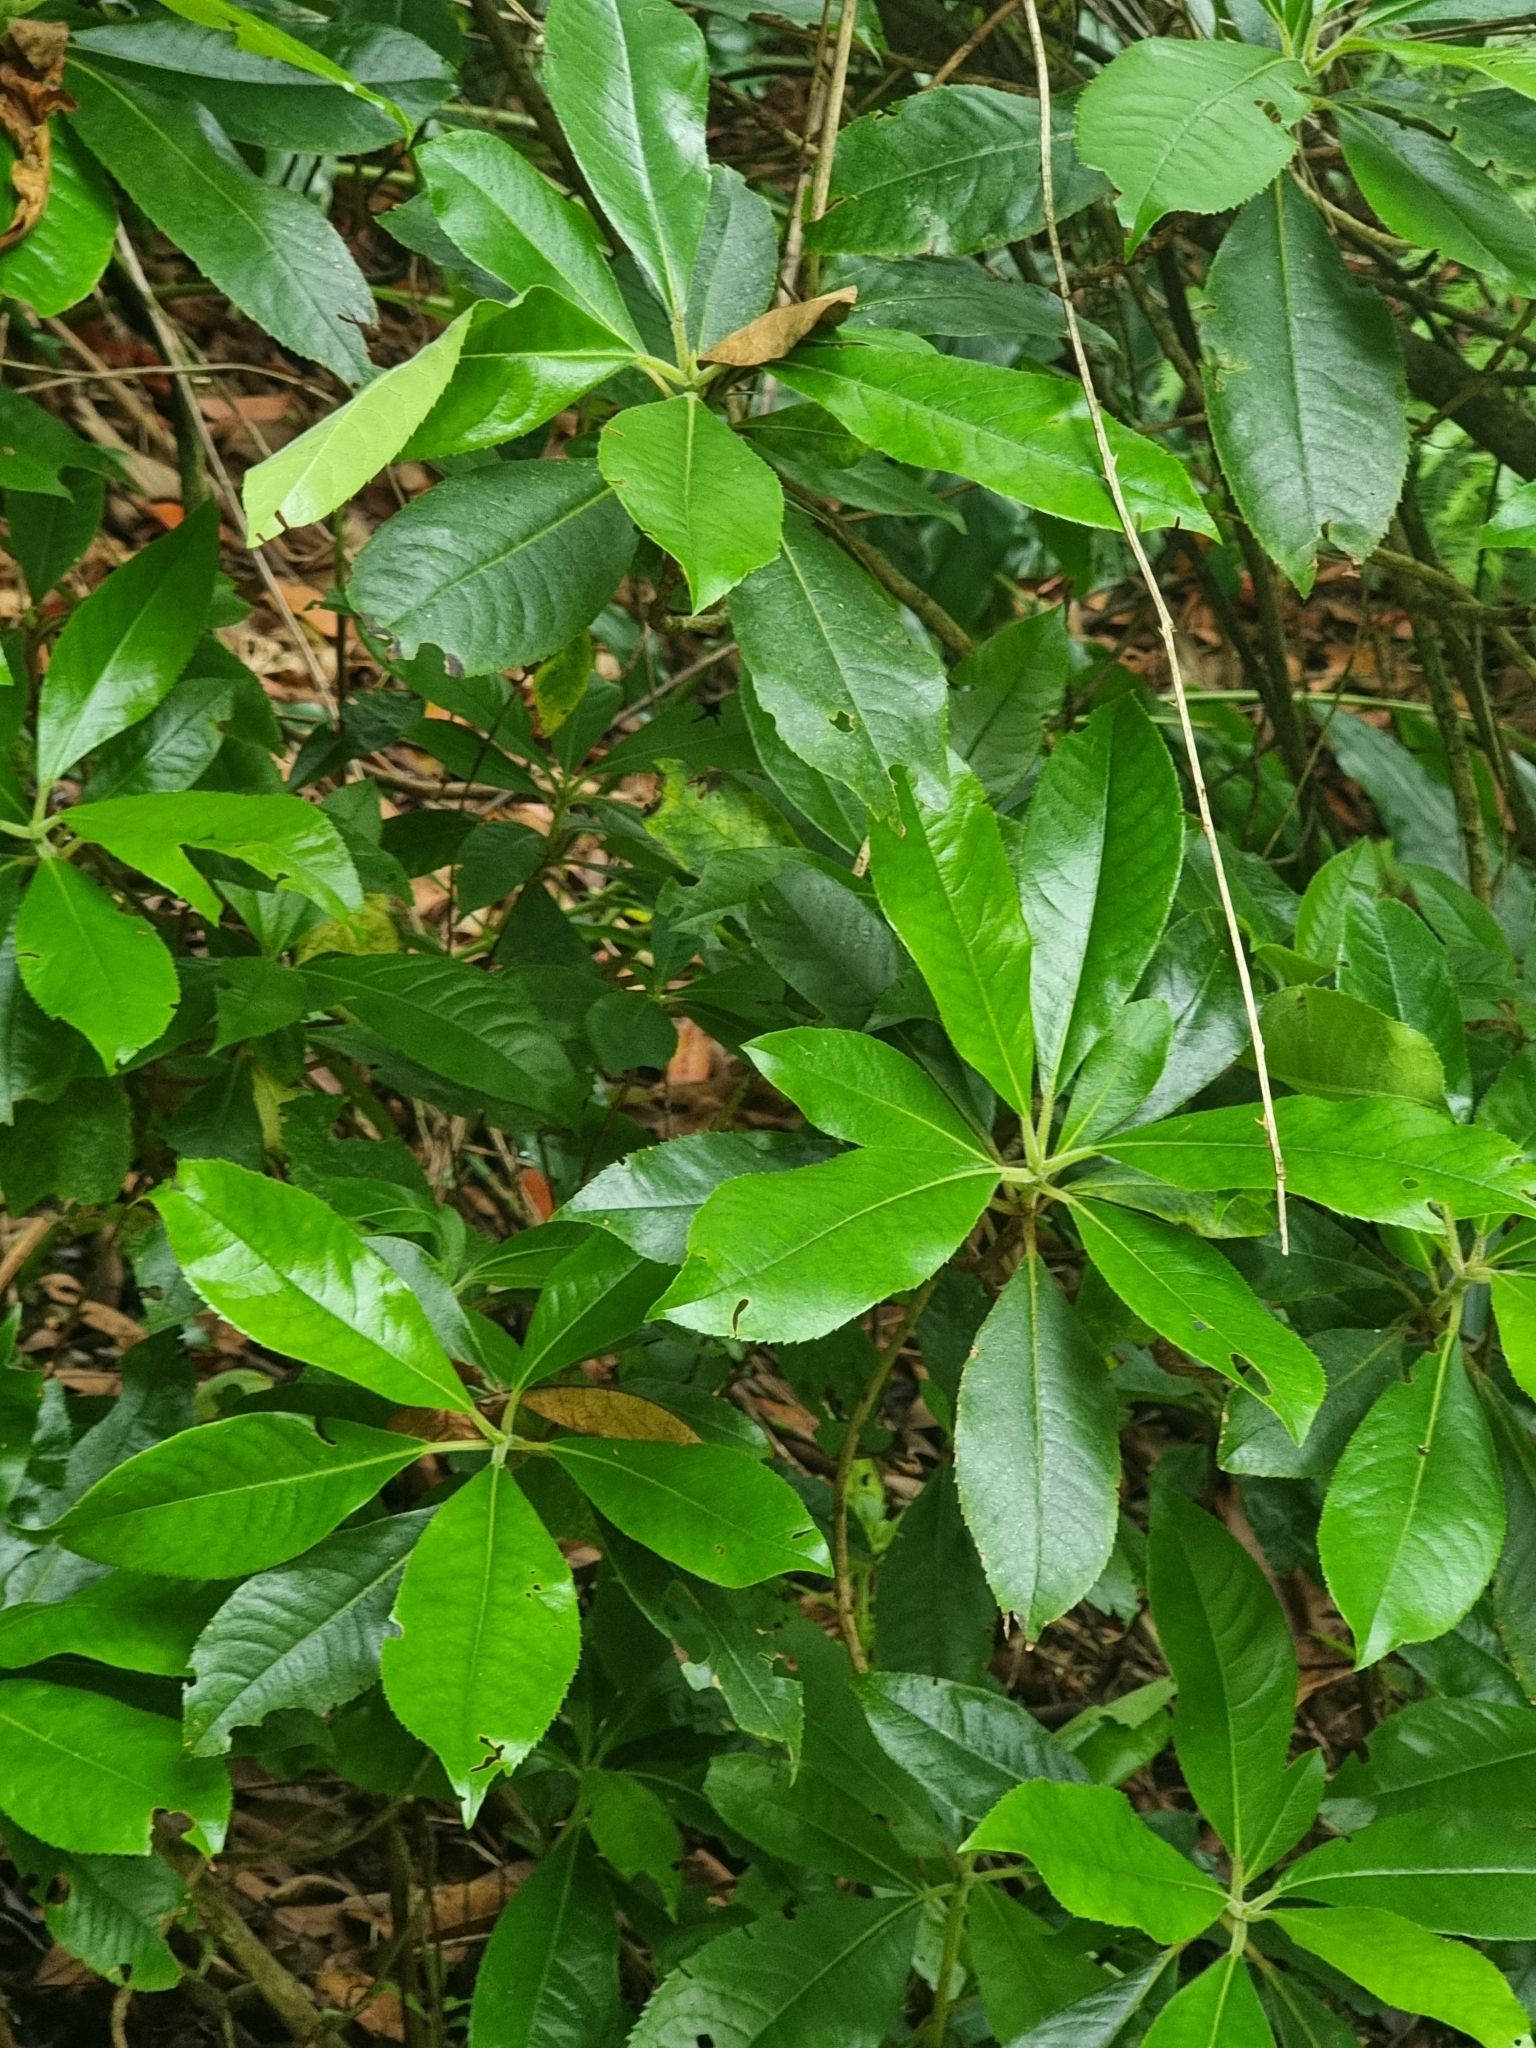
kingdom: Plantae
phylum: Tracheophyta
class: Magnoliopsida
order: Ericales
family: Clethraceae
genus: Clethra
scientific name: Clethra arborea
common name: Lily-of-the-valley-tree
